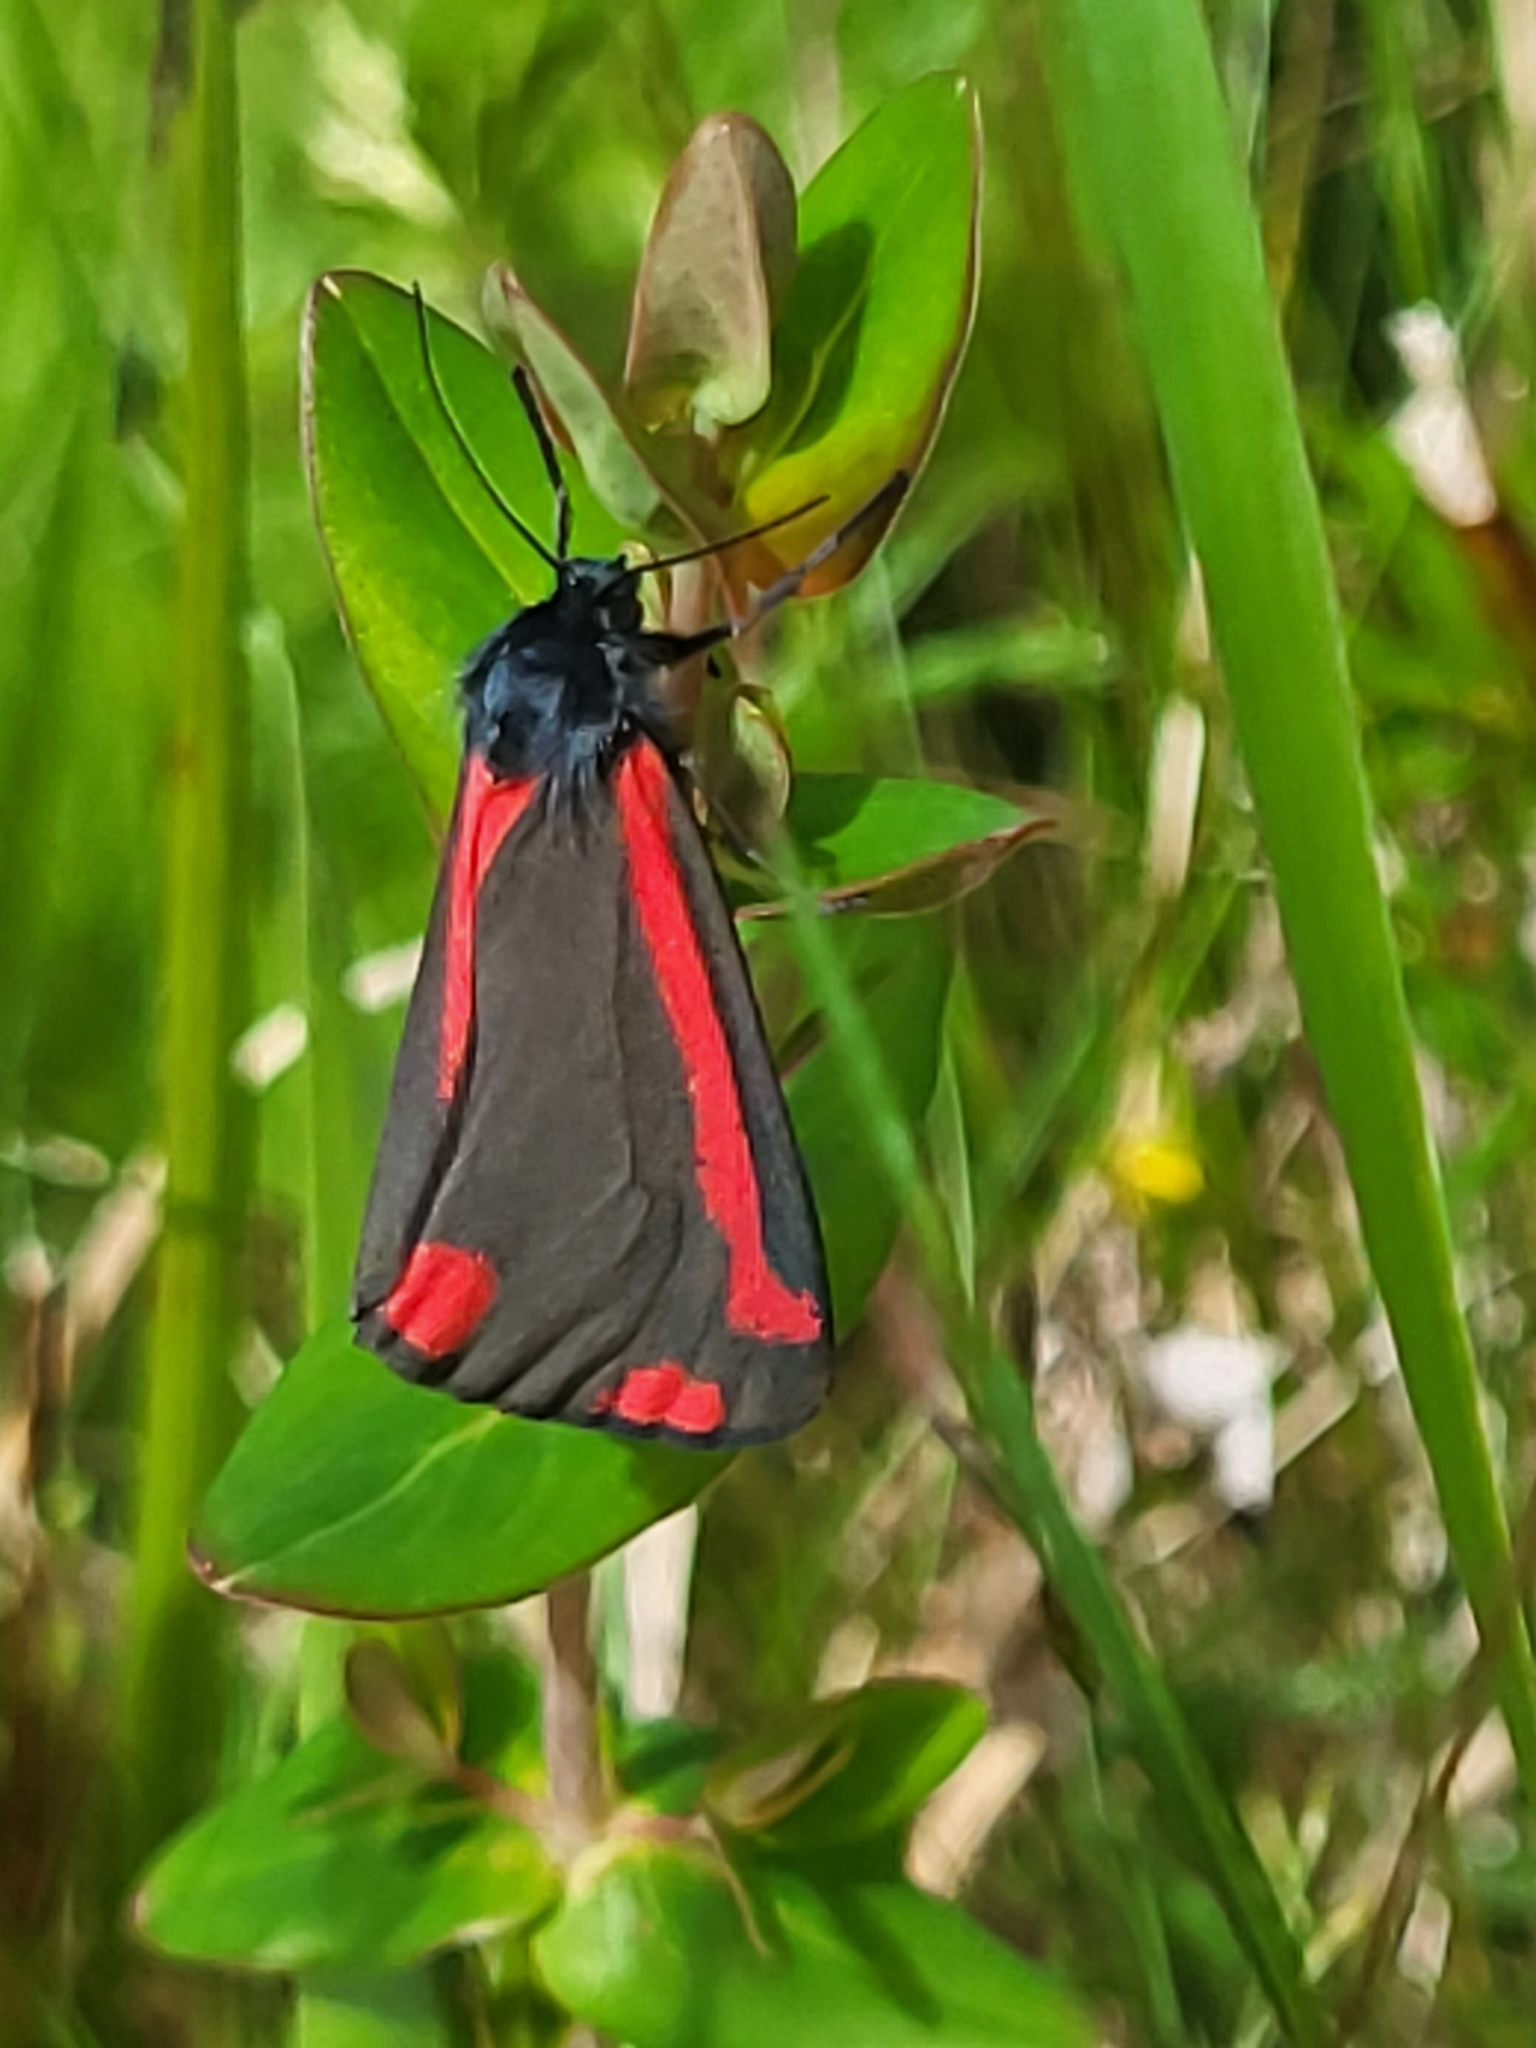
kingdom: Animalia
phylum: Arthropoda
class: Insecta
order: Lepidoptera
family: Erebidae
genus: Tyria
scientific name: Tyria jacobaeae
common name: Cinnabar
